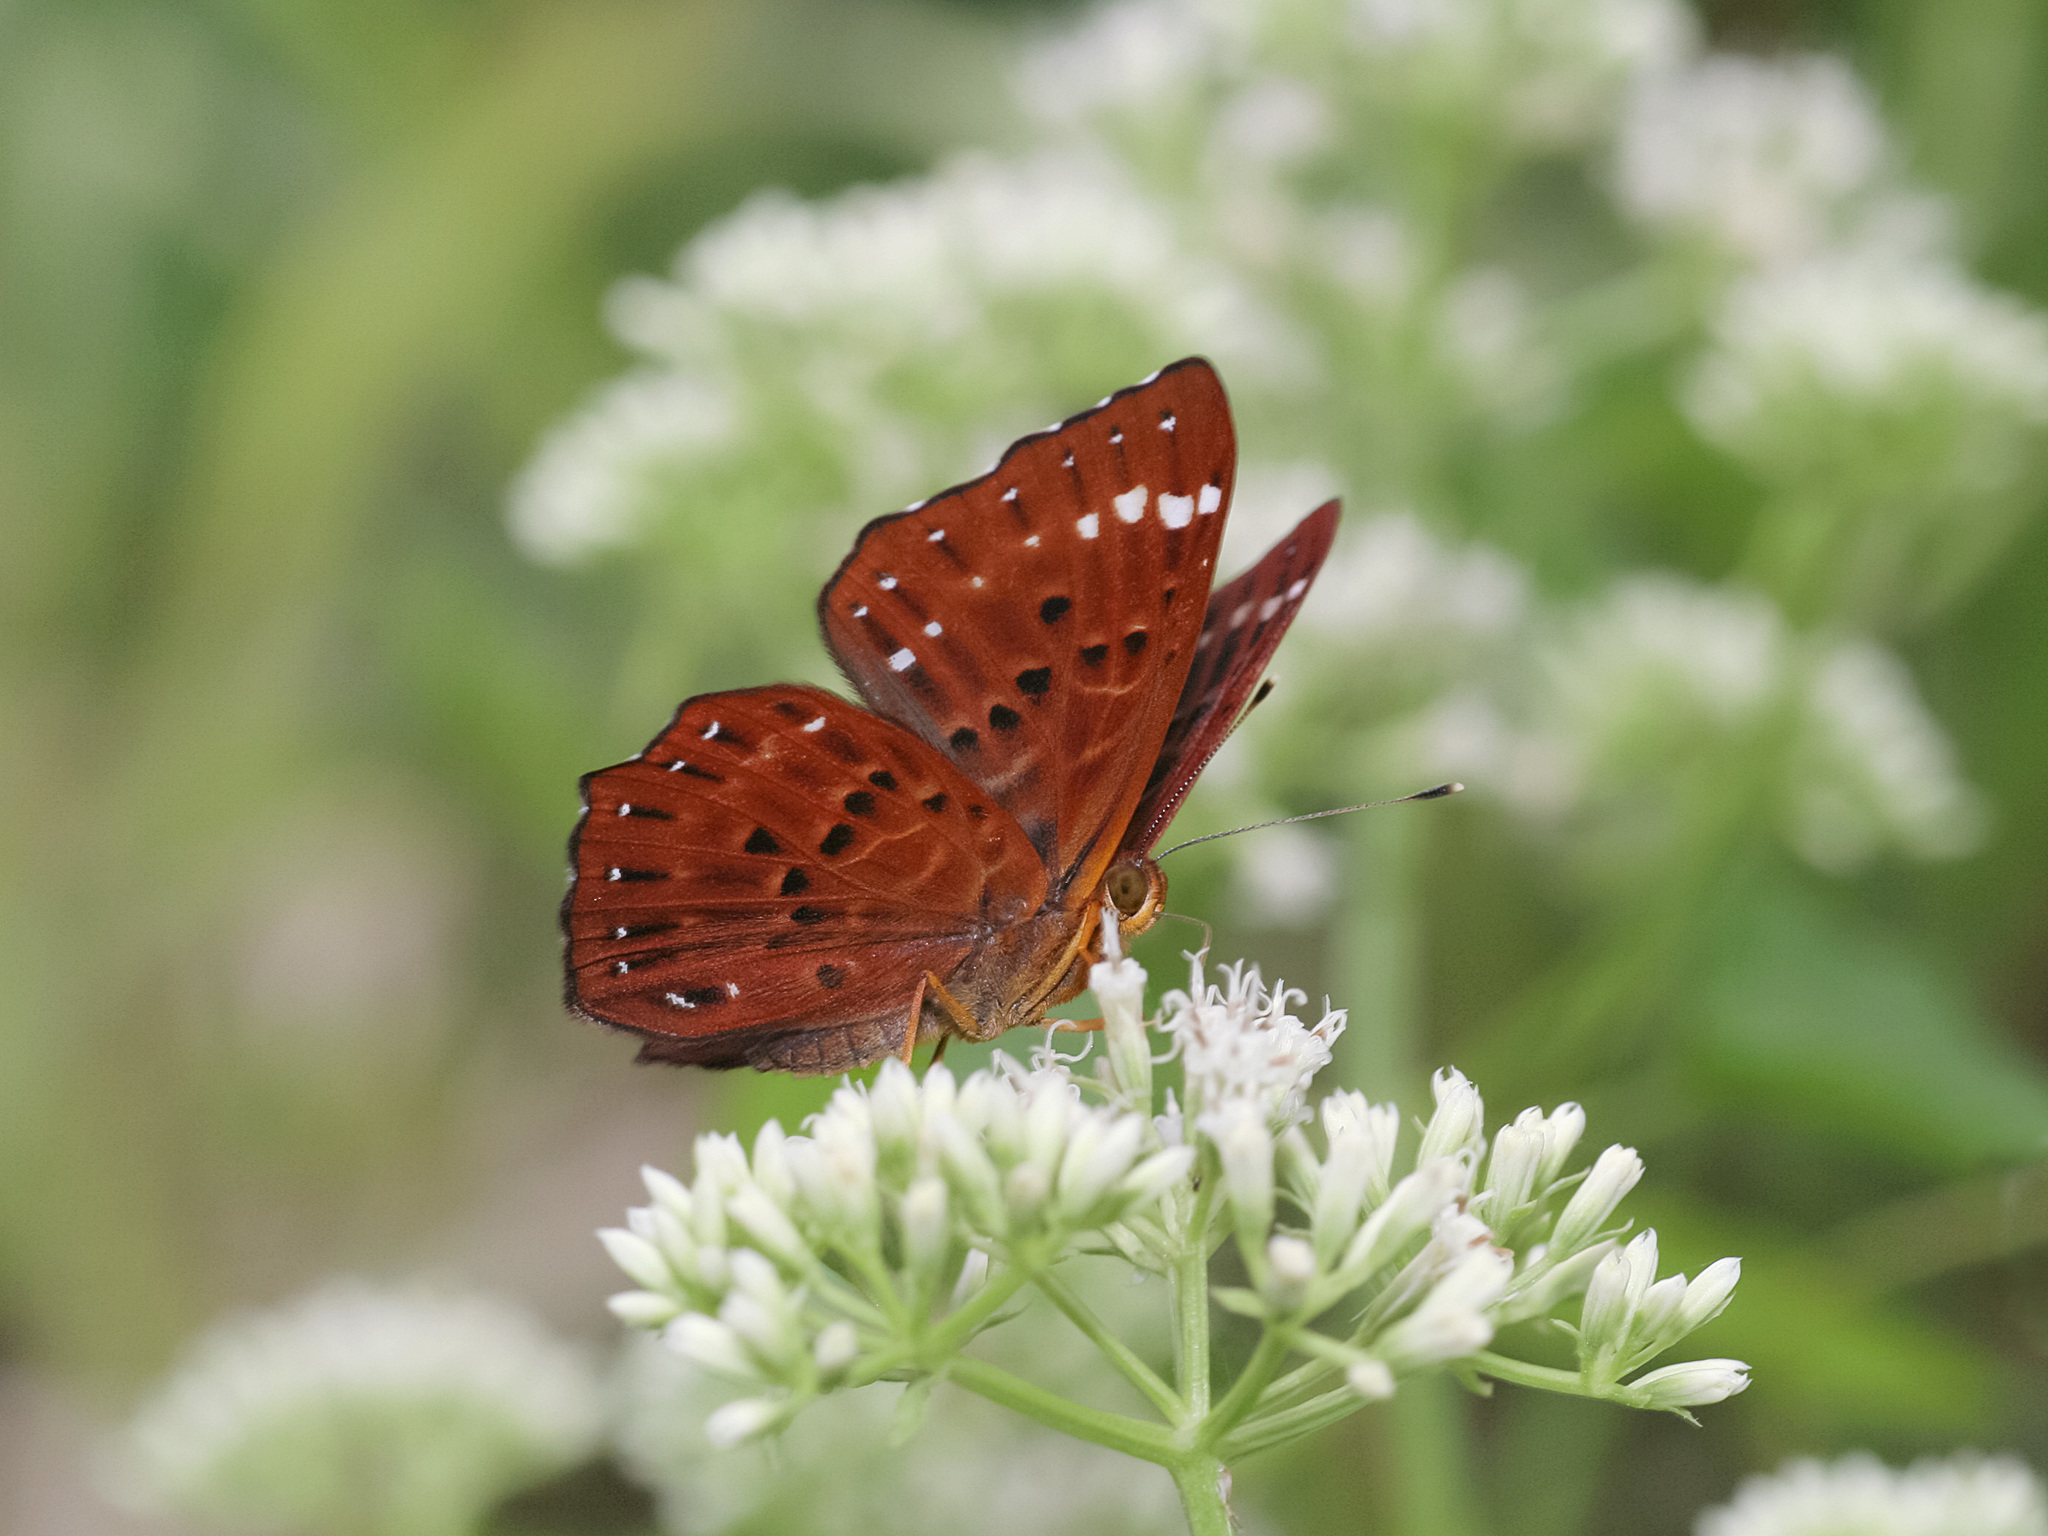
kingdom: Animalia
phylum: Arthropoda
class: Insecta
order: Lepidoptera
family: Riodinidae
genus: Zemeros
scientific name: Zemeros flegyas
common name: Punchinello
